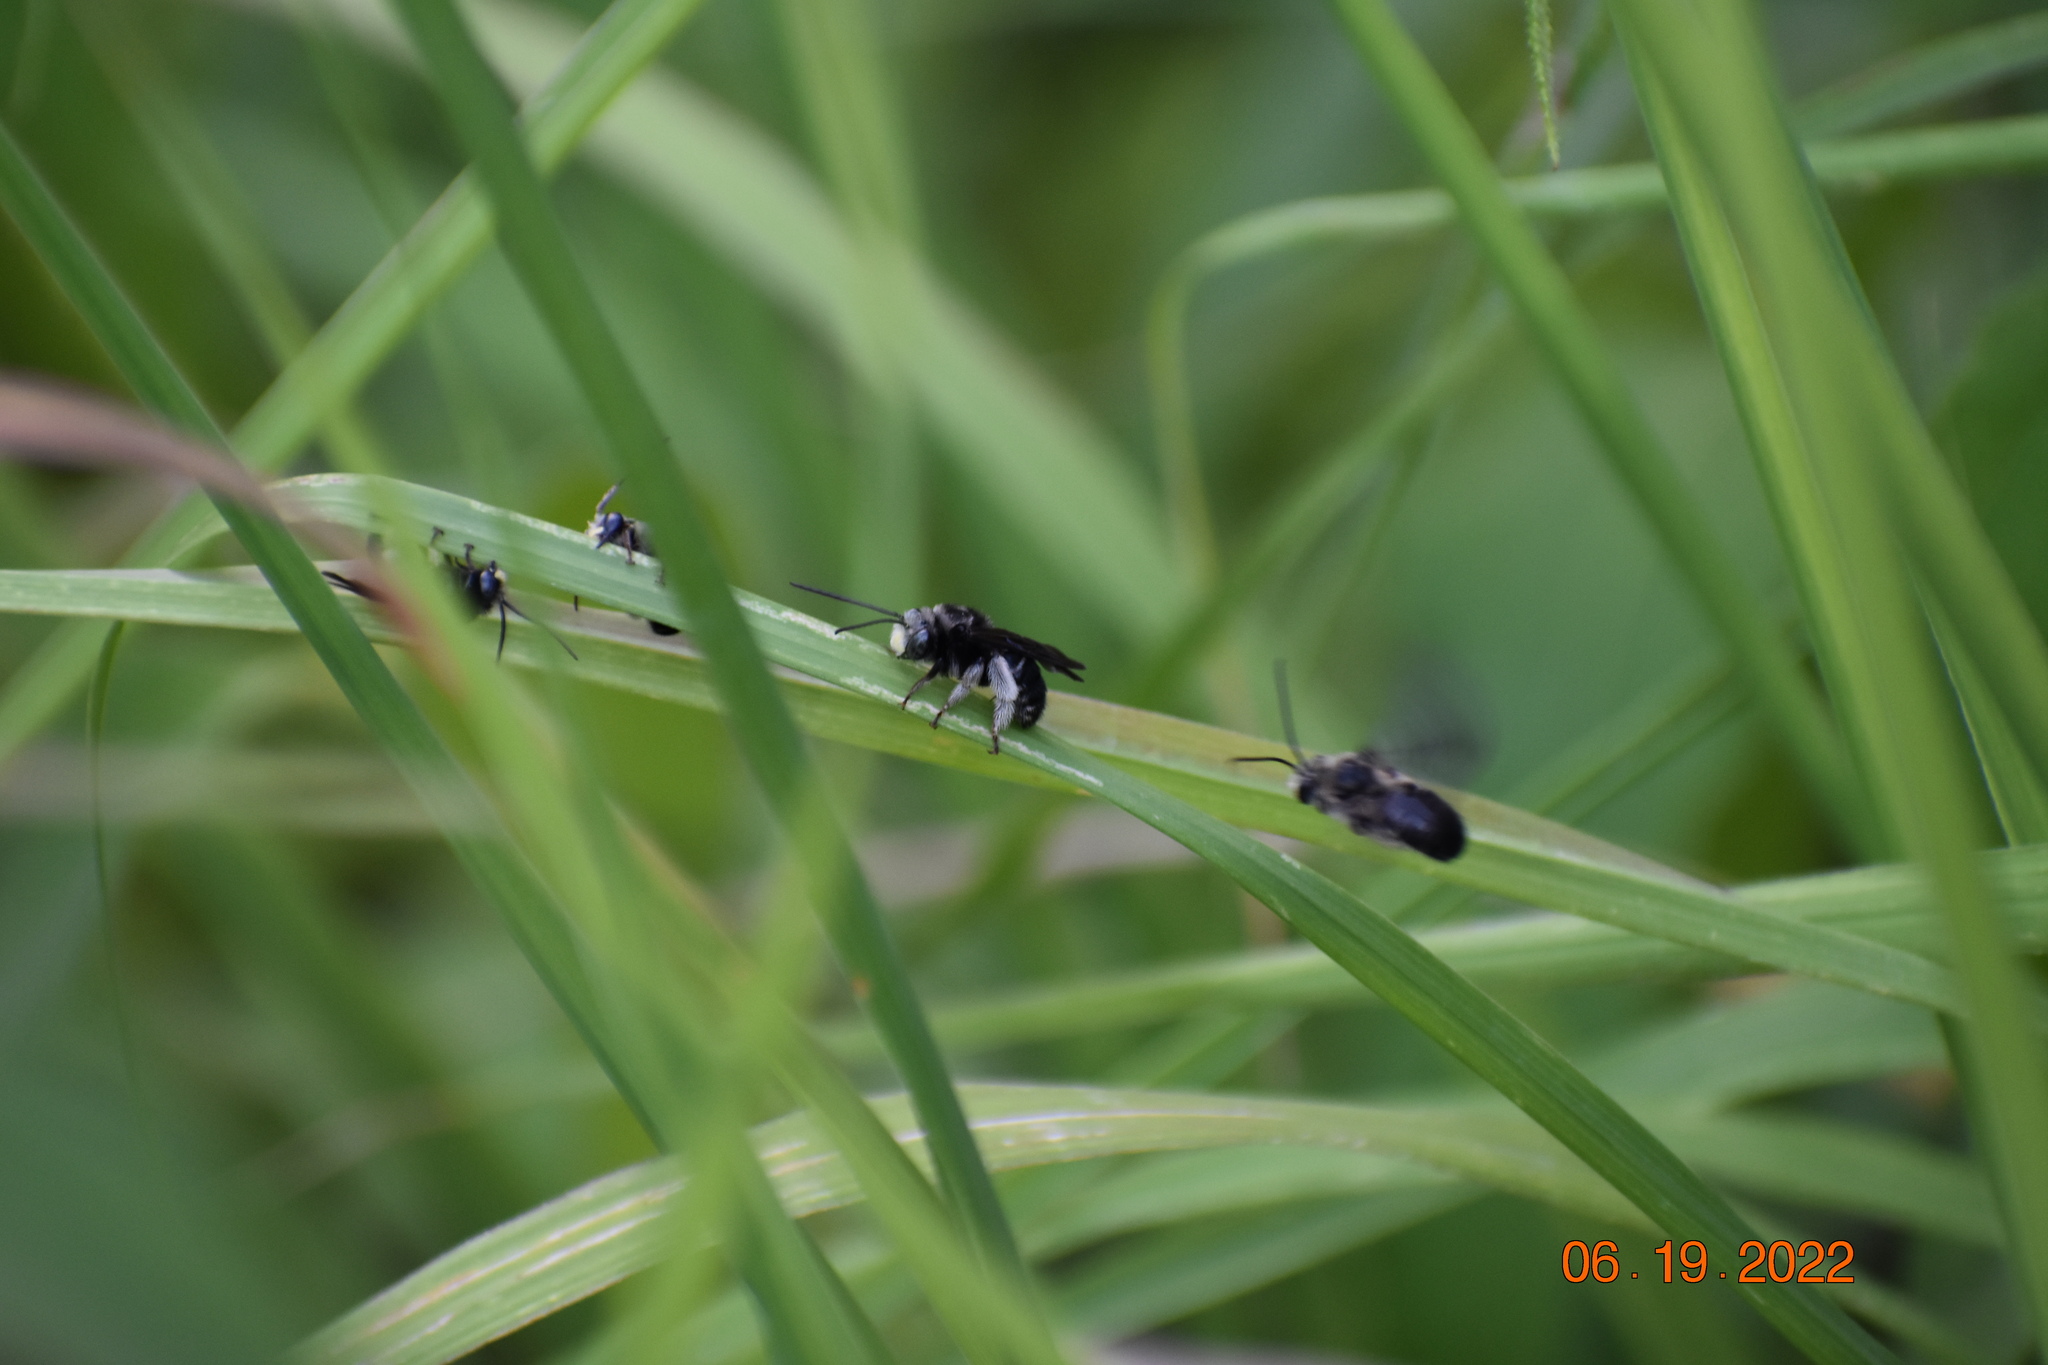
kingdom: Animalia
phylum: Arthropoda
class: Insecta
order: Hymenoptera
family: Apidae
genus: Melissodes
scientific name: Melissodes bimaculatus
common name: Two-spotted long-horned bee
